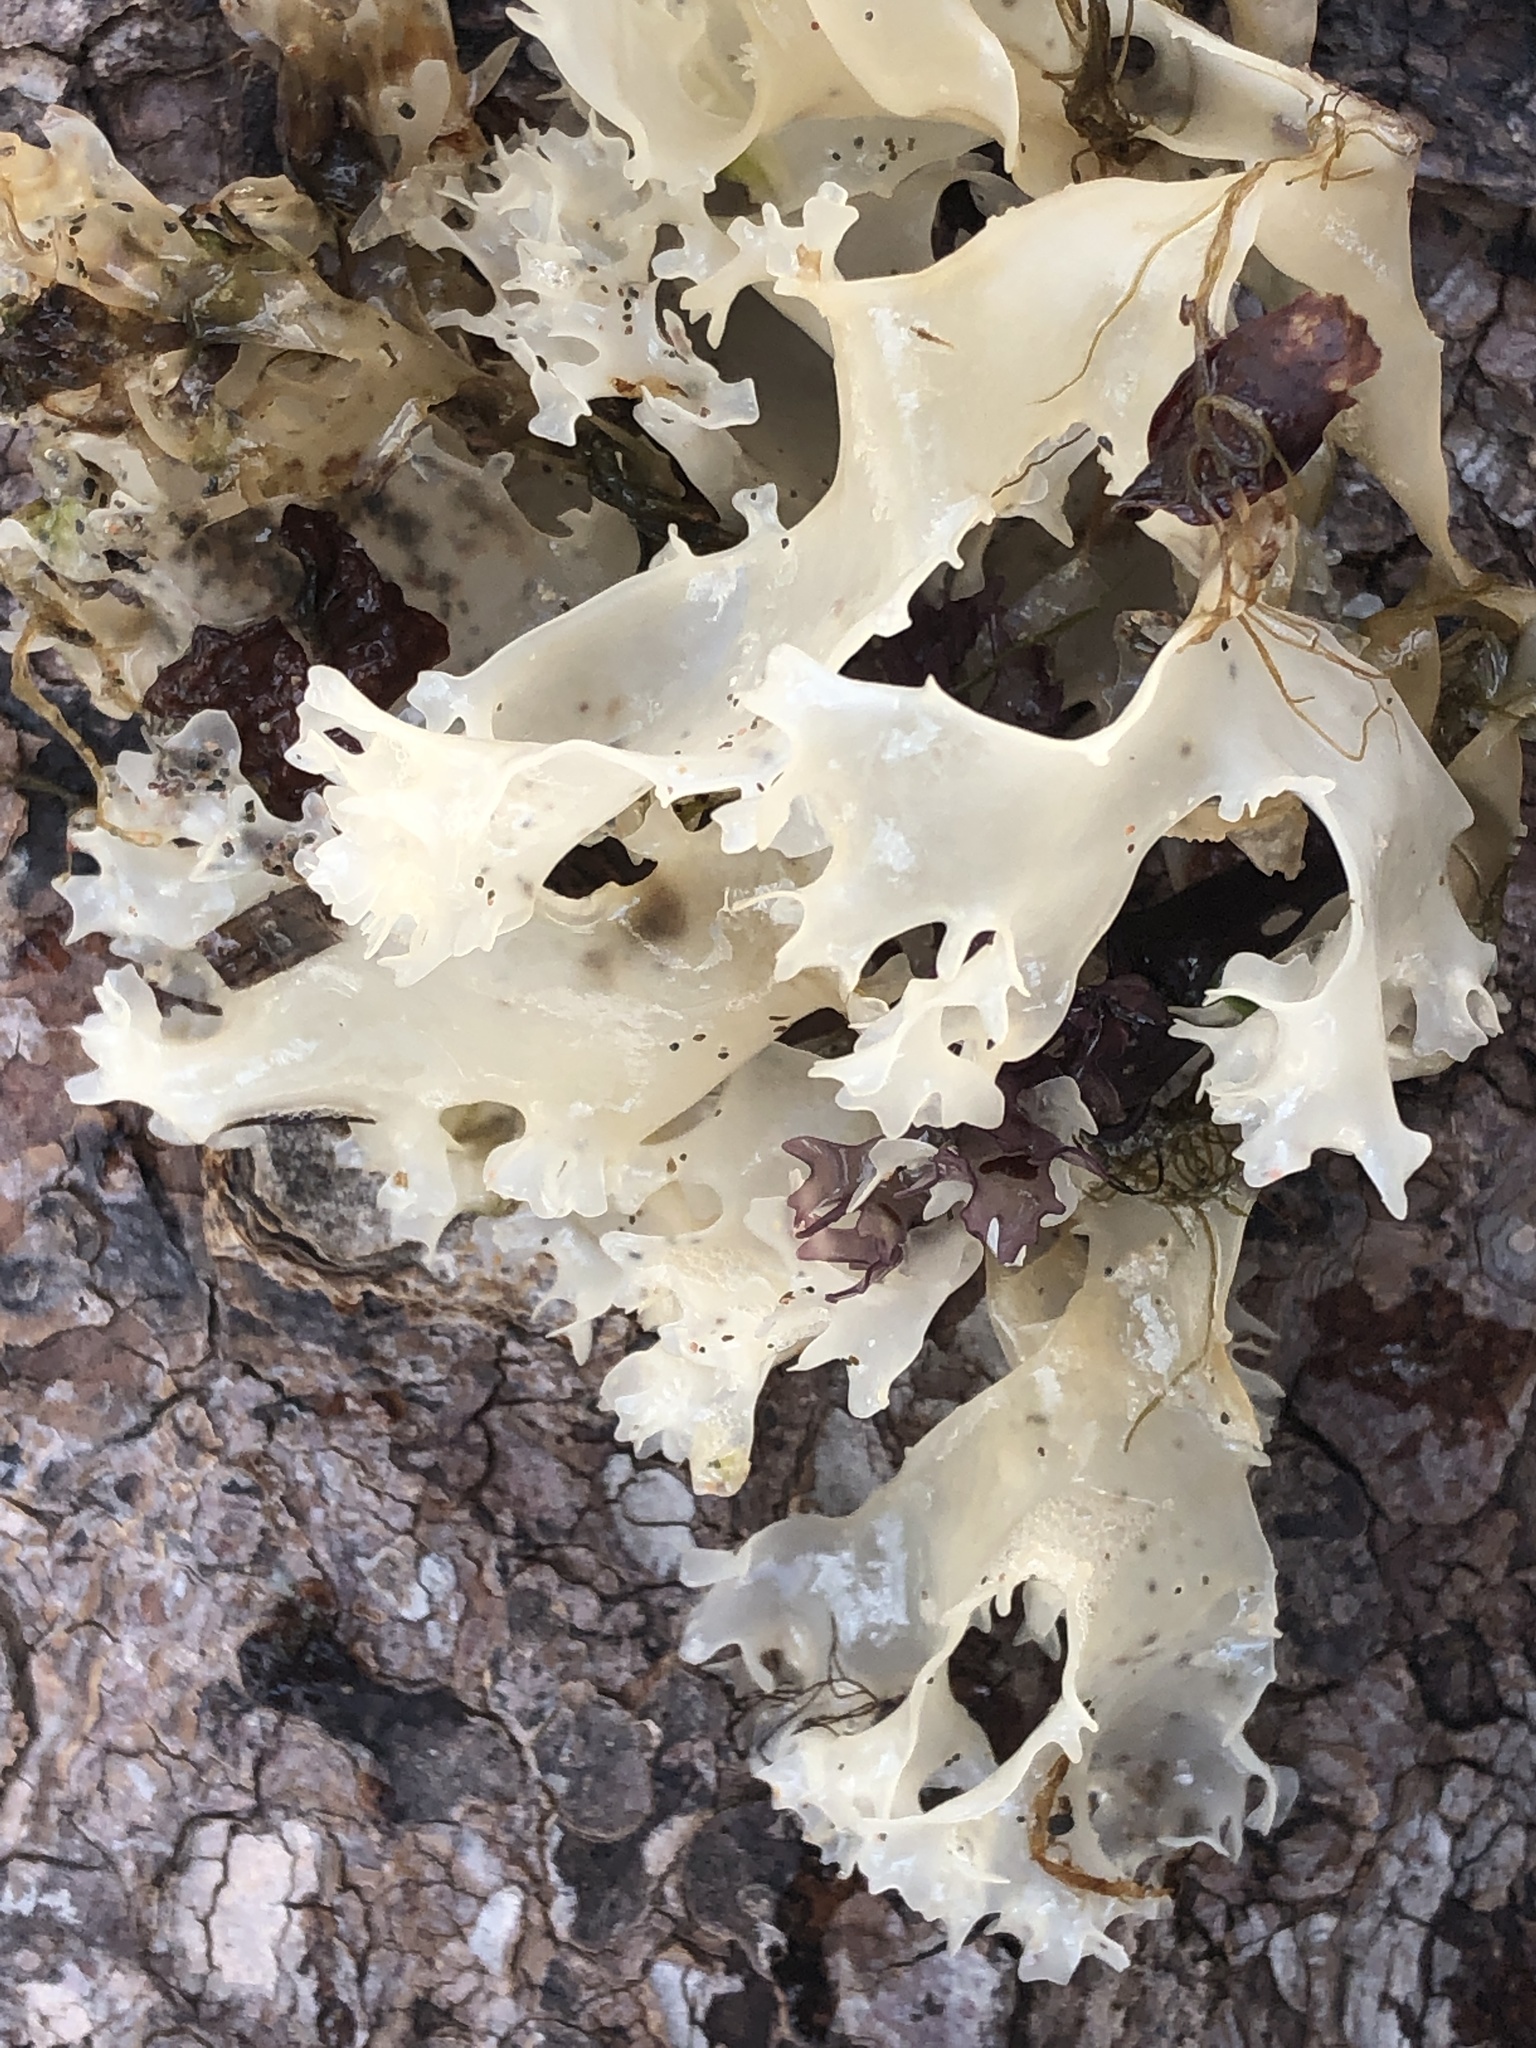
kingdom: Plantae
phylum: Rhodophyta
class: Florideophyceae
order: Gigartinales
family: Gigartinaceae
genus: Chondrus
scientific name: Chondrus crispus
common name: Carrageen
